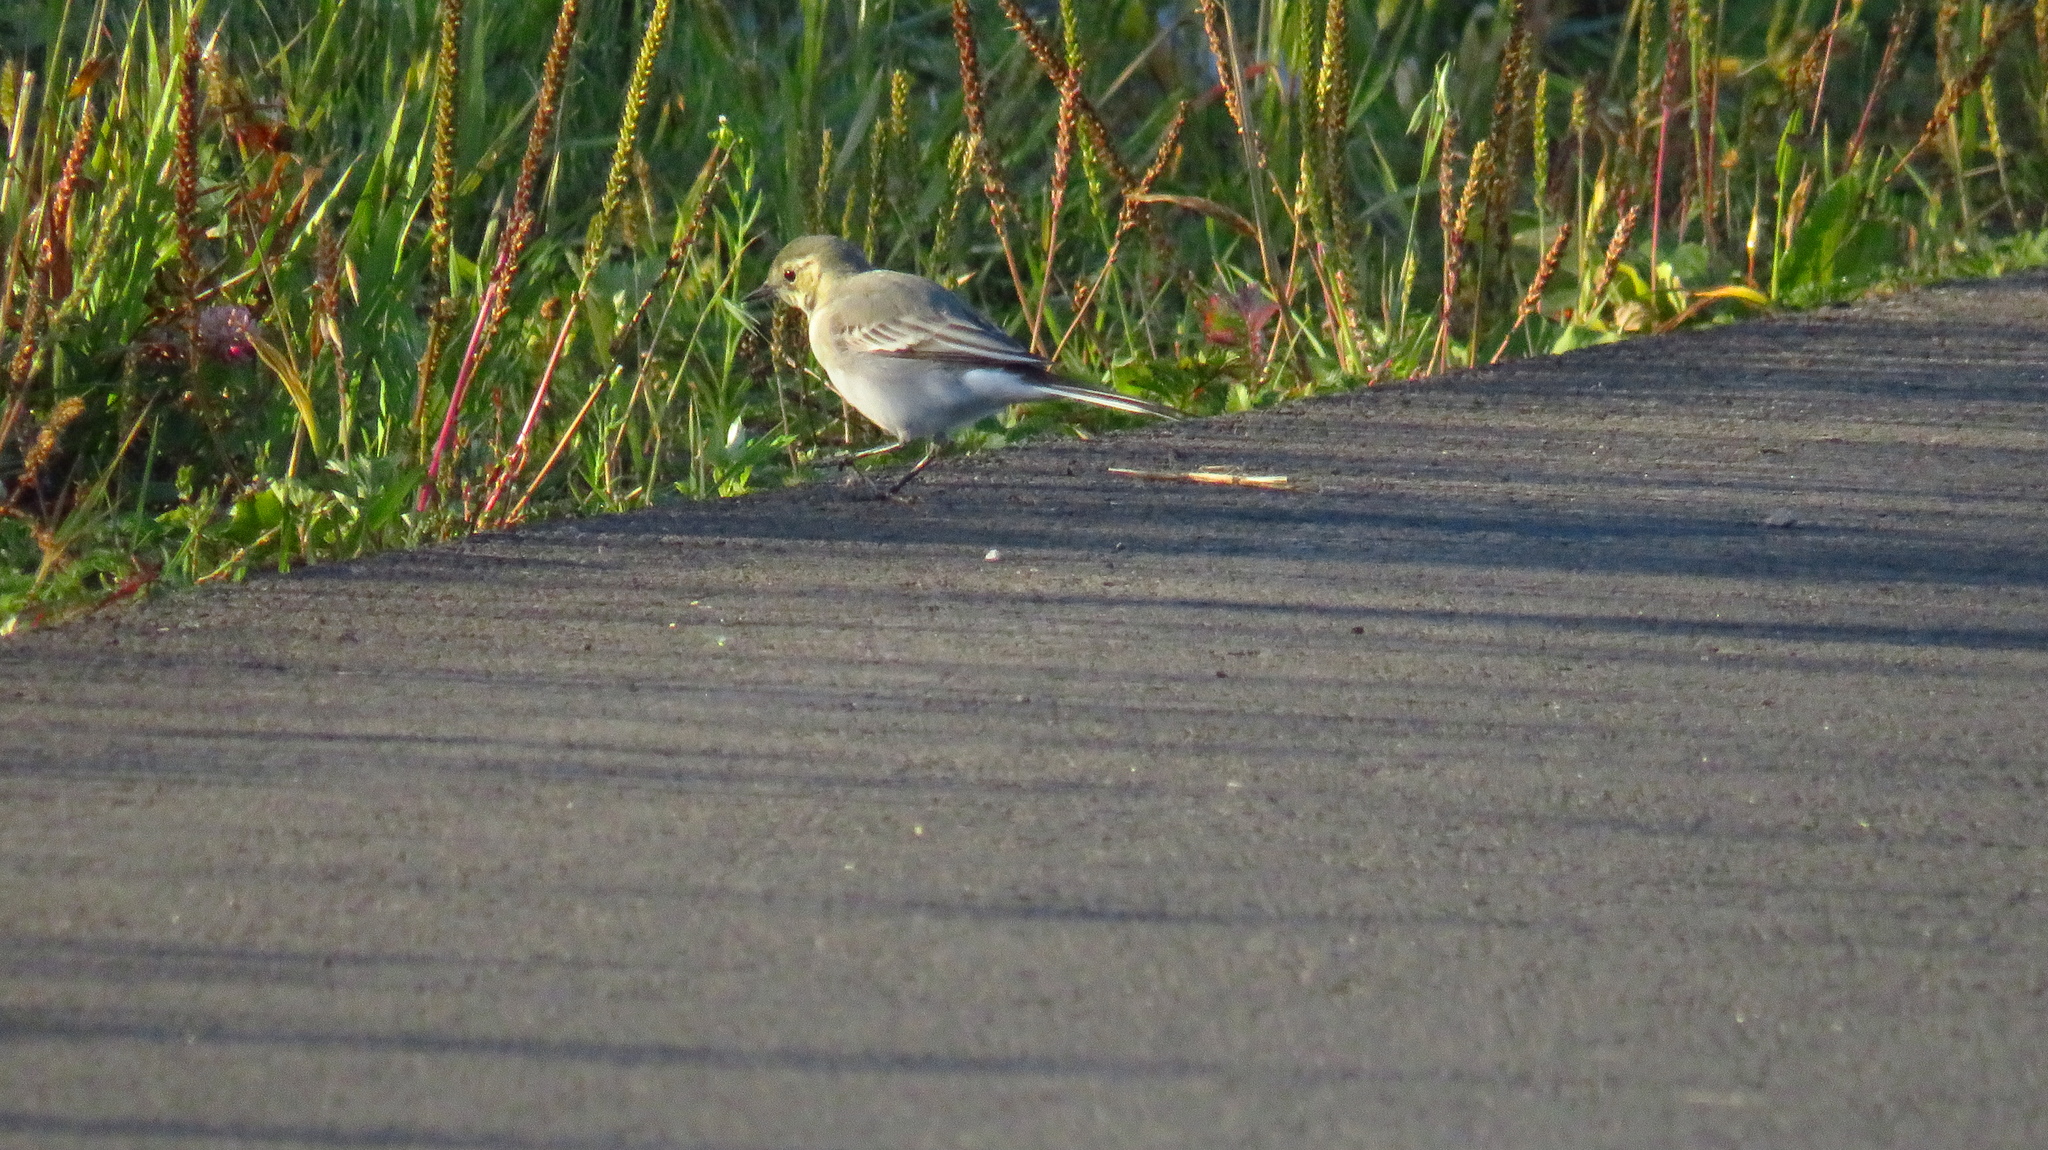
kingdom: Animalia
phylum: Chordata
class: Aves
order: Passeriformes
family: Motacillidae
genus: Motacilla
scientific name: Motacilla alba
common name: White wagtail
